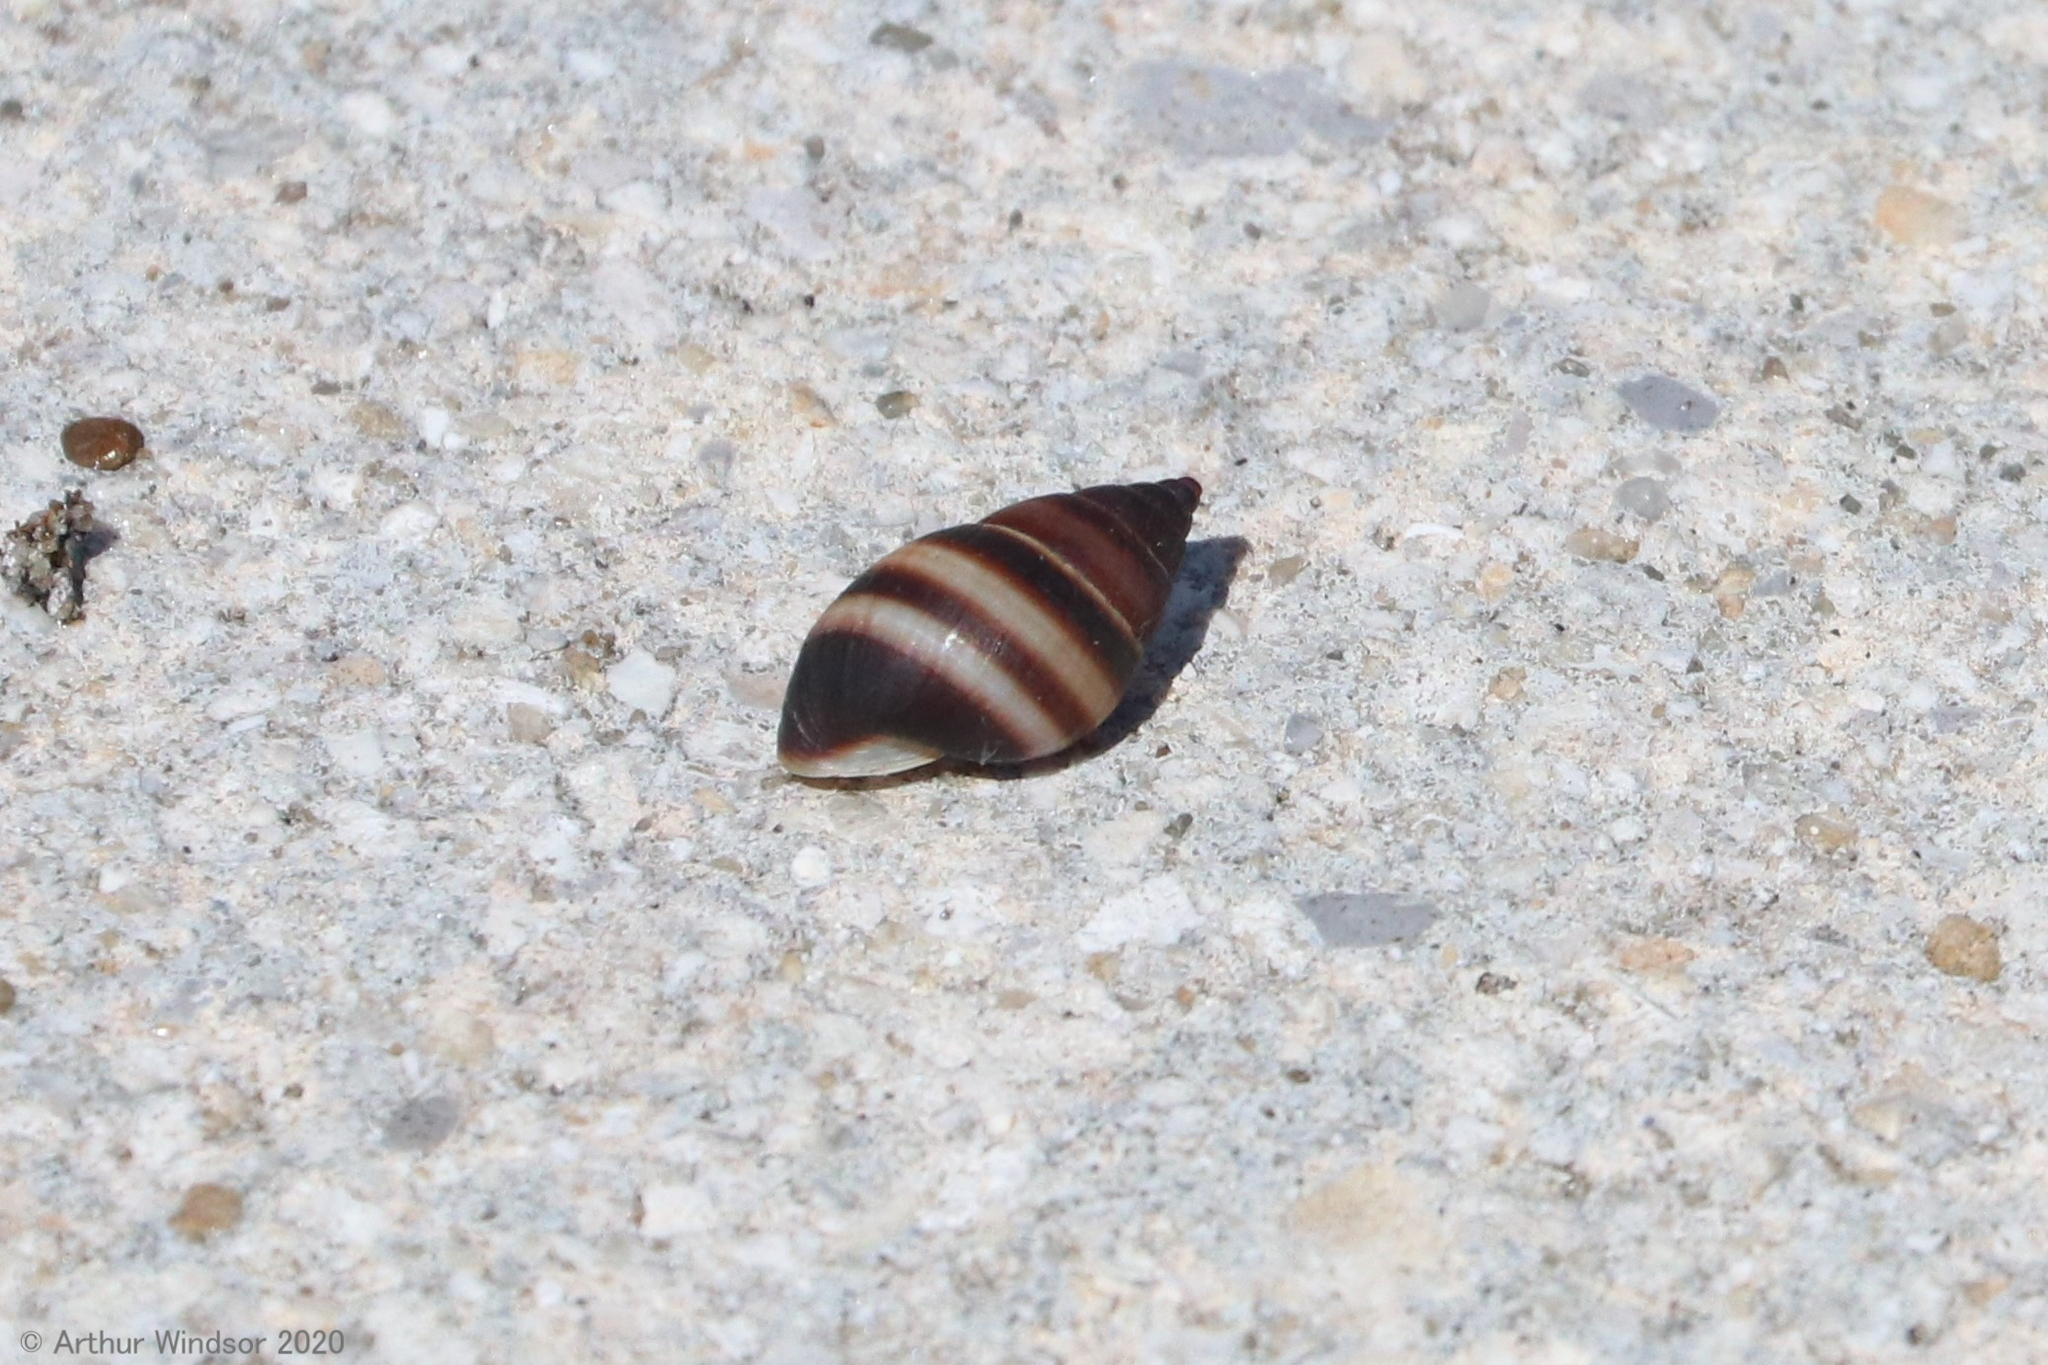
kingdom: Animalia
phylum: Mollusca
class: Gastropoda
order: Stylommatophora
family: Bulimulidae
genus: Bulimulus
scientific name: Bulimulus guadalupensis
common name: West indian bulimulus
